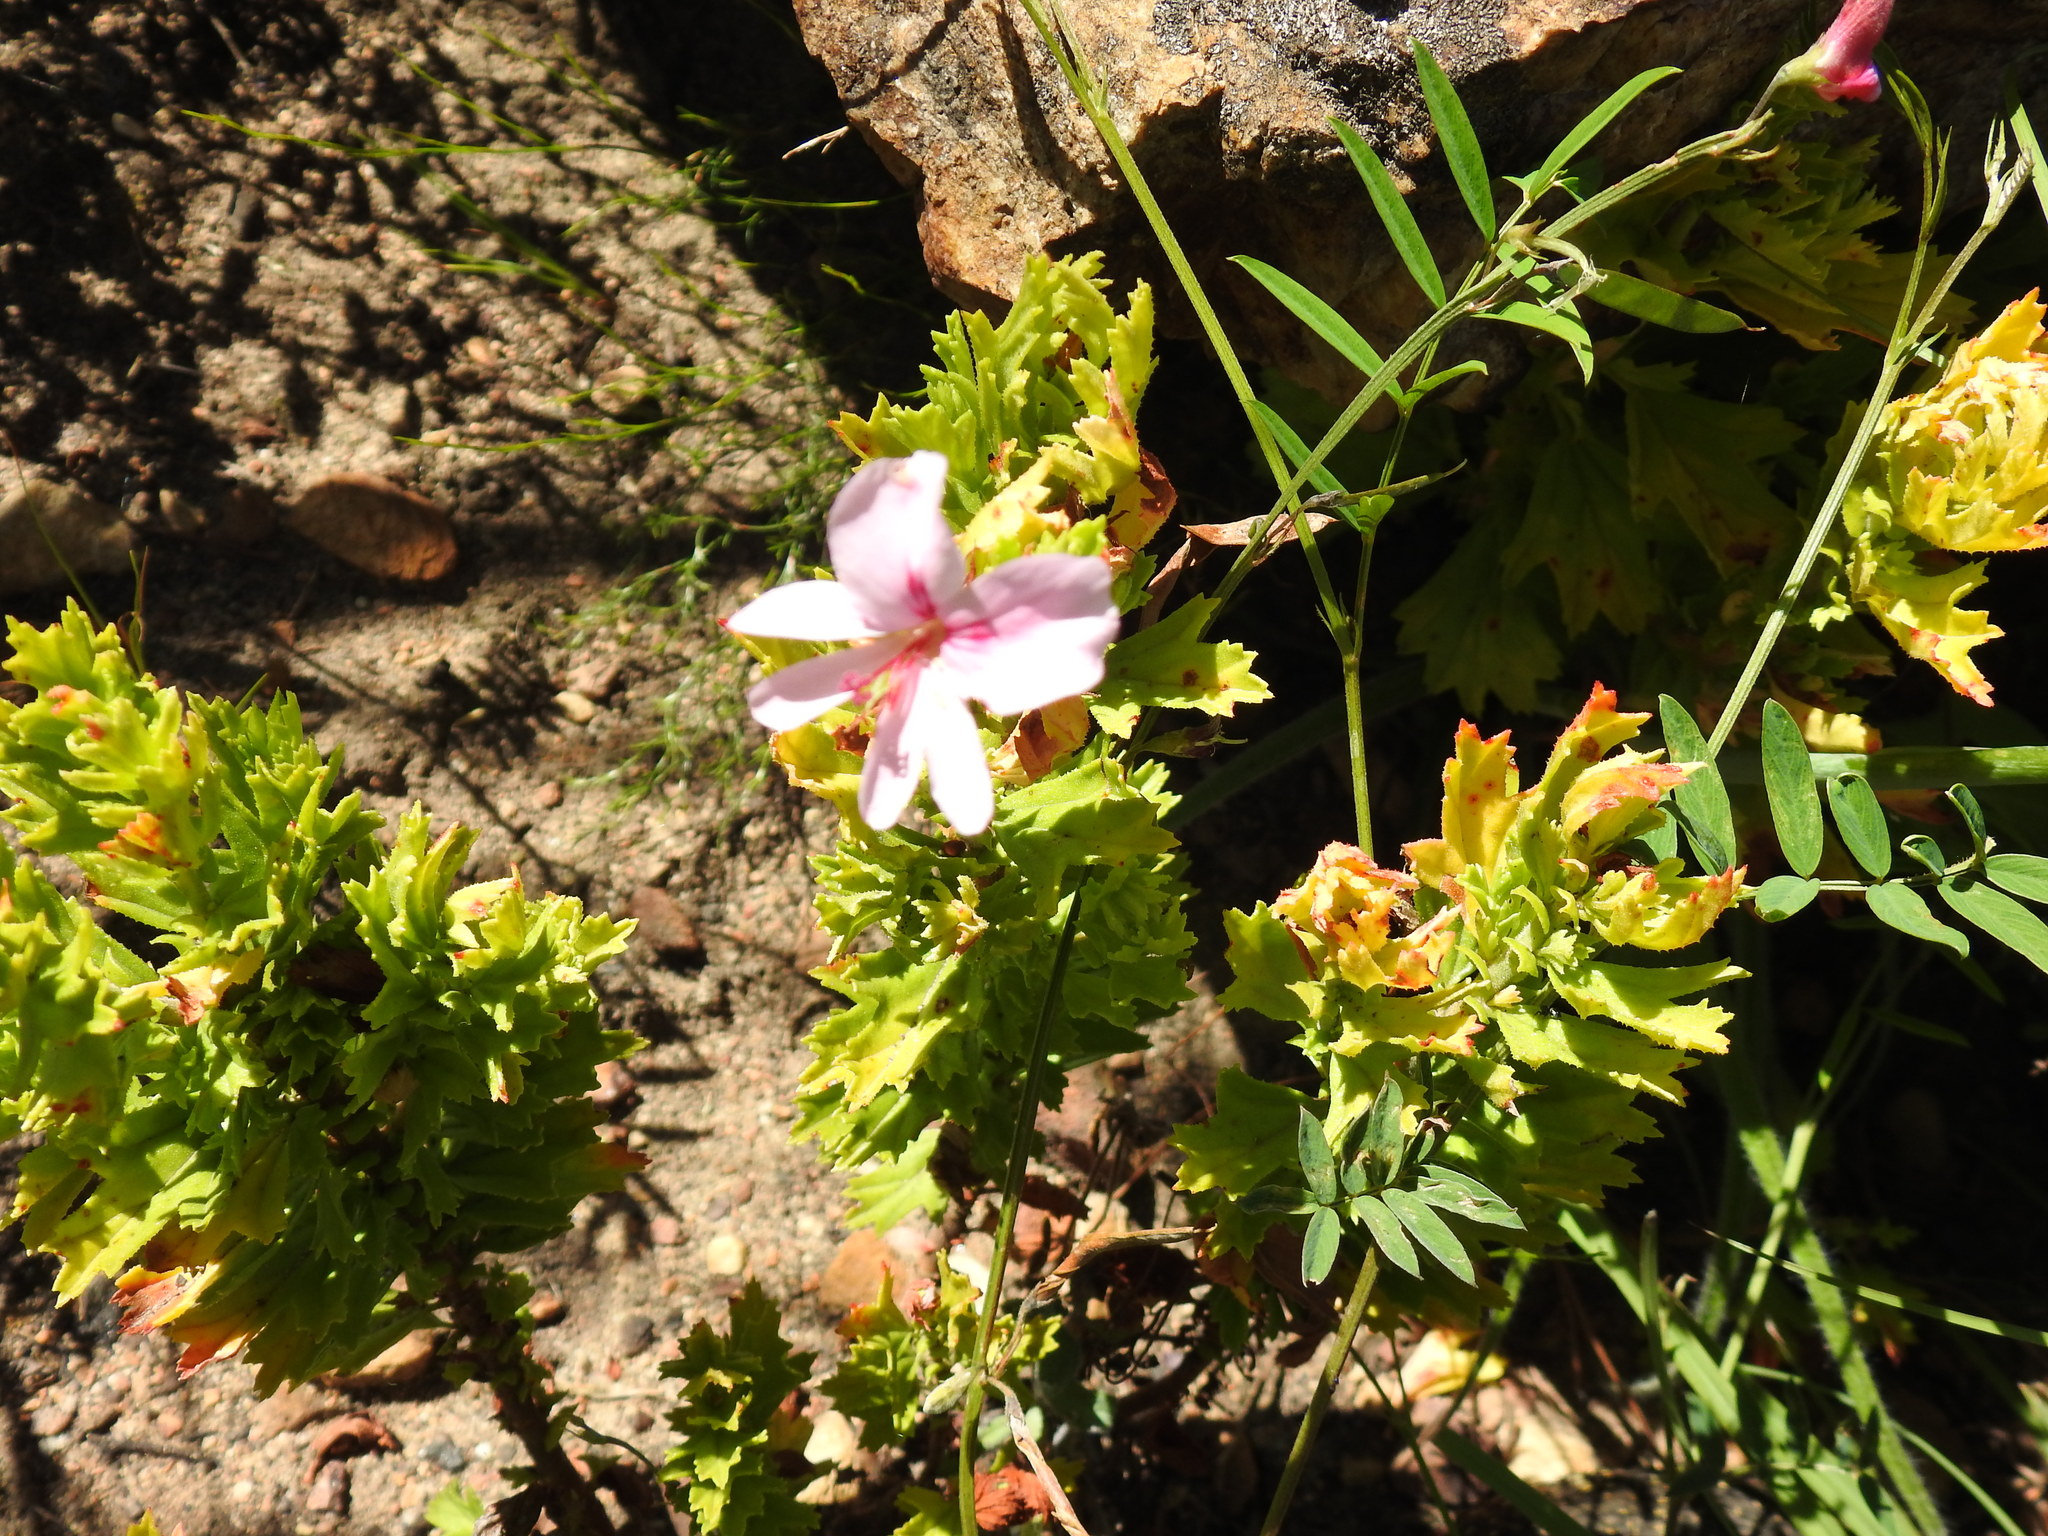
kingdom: Plantae
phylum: Tracheophyta
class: Magnoliopsida
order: Geraniales
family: Geraniaceae
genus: Pelargonium
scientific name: Pelargonium hermaniifolium
